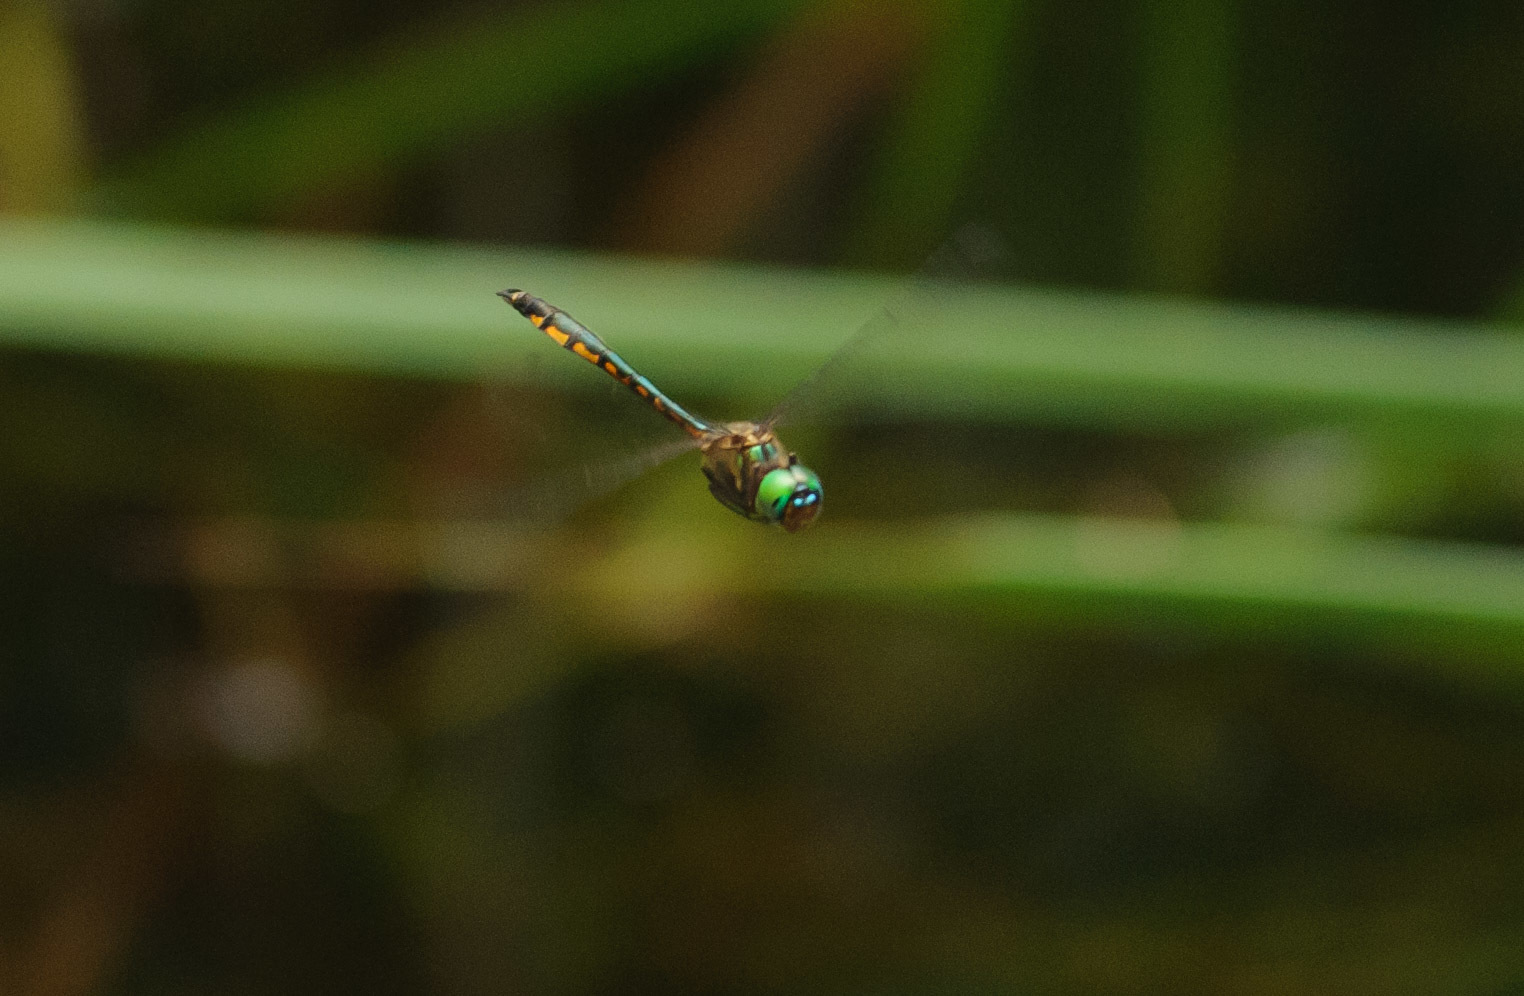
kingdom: Animalia
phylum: Arthropoda
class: Insecta
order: Odonata
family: Corduliidae
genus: Hemicordulia
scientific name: Hemicordulia continentalis
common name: Fat-bellied emerald
